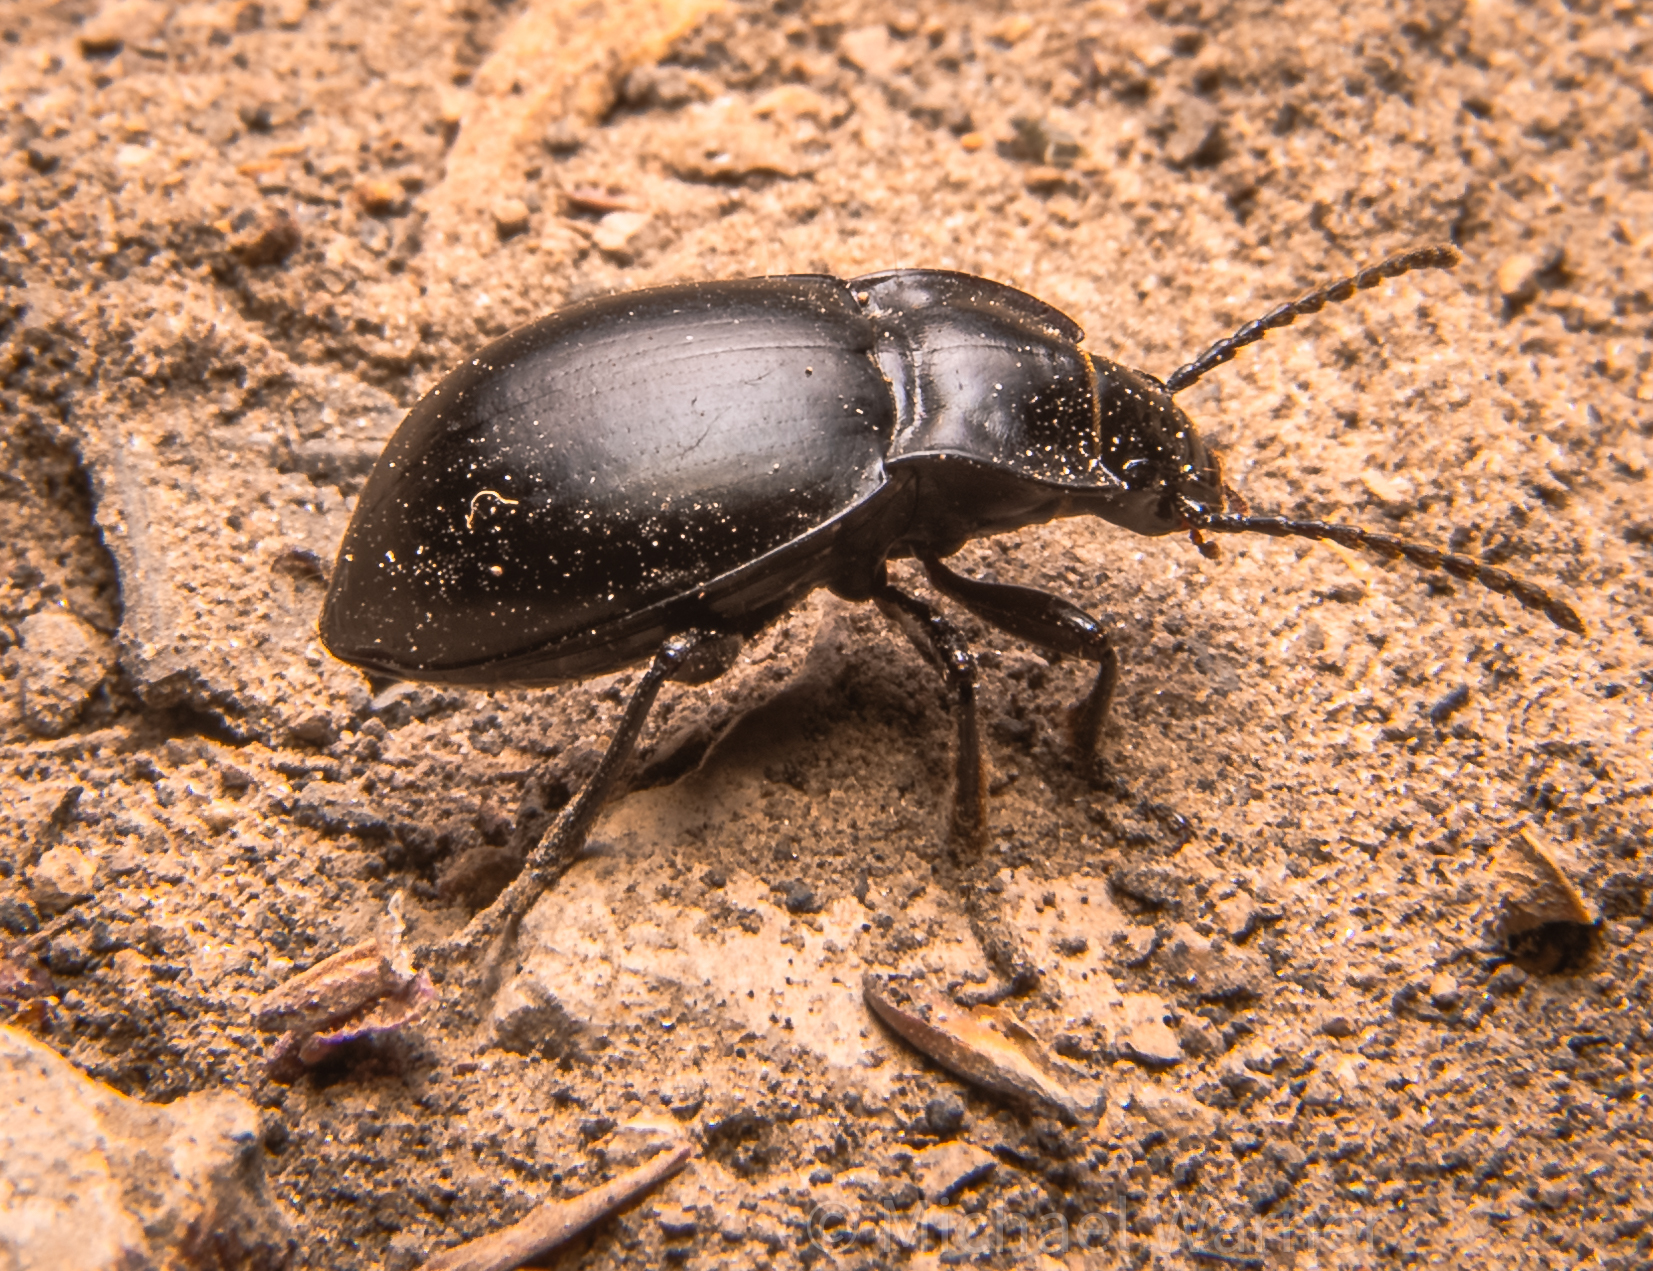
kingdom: Animalia
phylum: Arthropoda
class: Insecta
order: Coleoptera
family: Carabidae
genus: Metrius
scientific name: Metrius contractus
